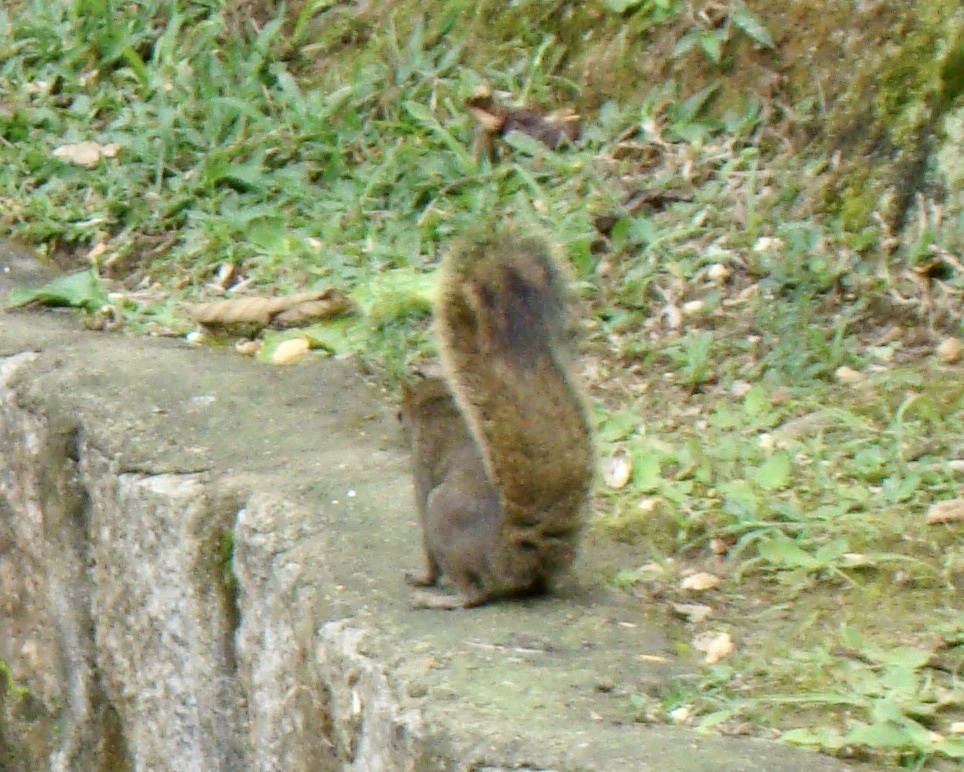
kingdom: Animalia
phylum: Chordata
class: Mammalia
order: Rodentia
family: Sciuridae
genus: Sciurus
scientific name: Sciurus aestuans
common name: Guianan squirrel
